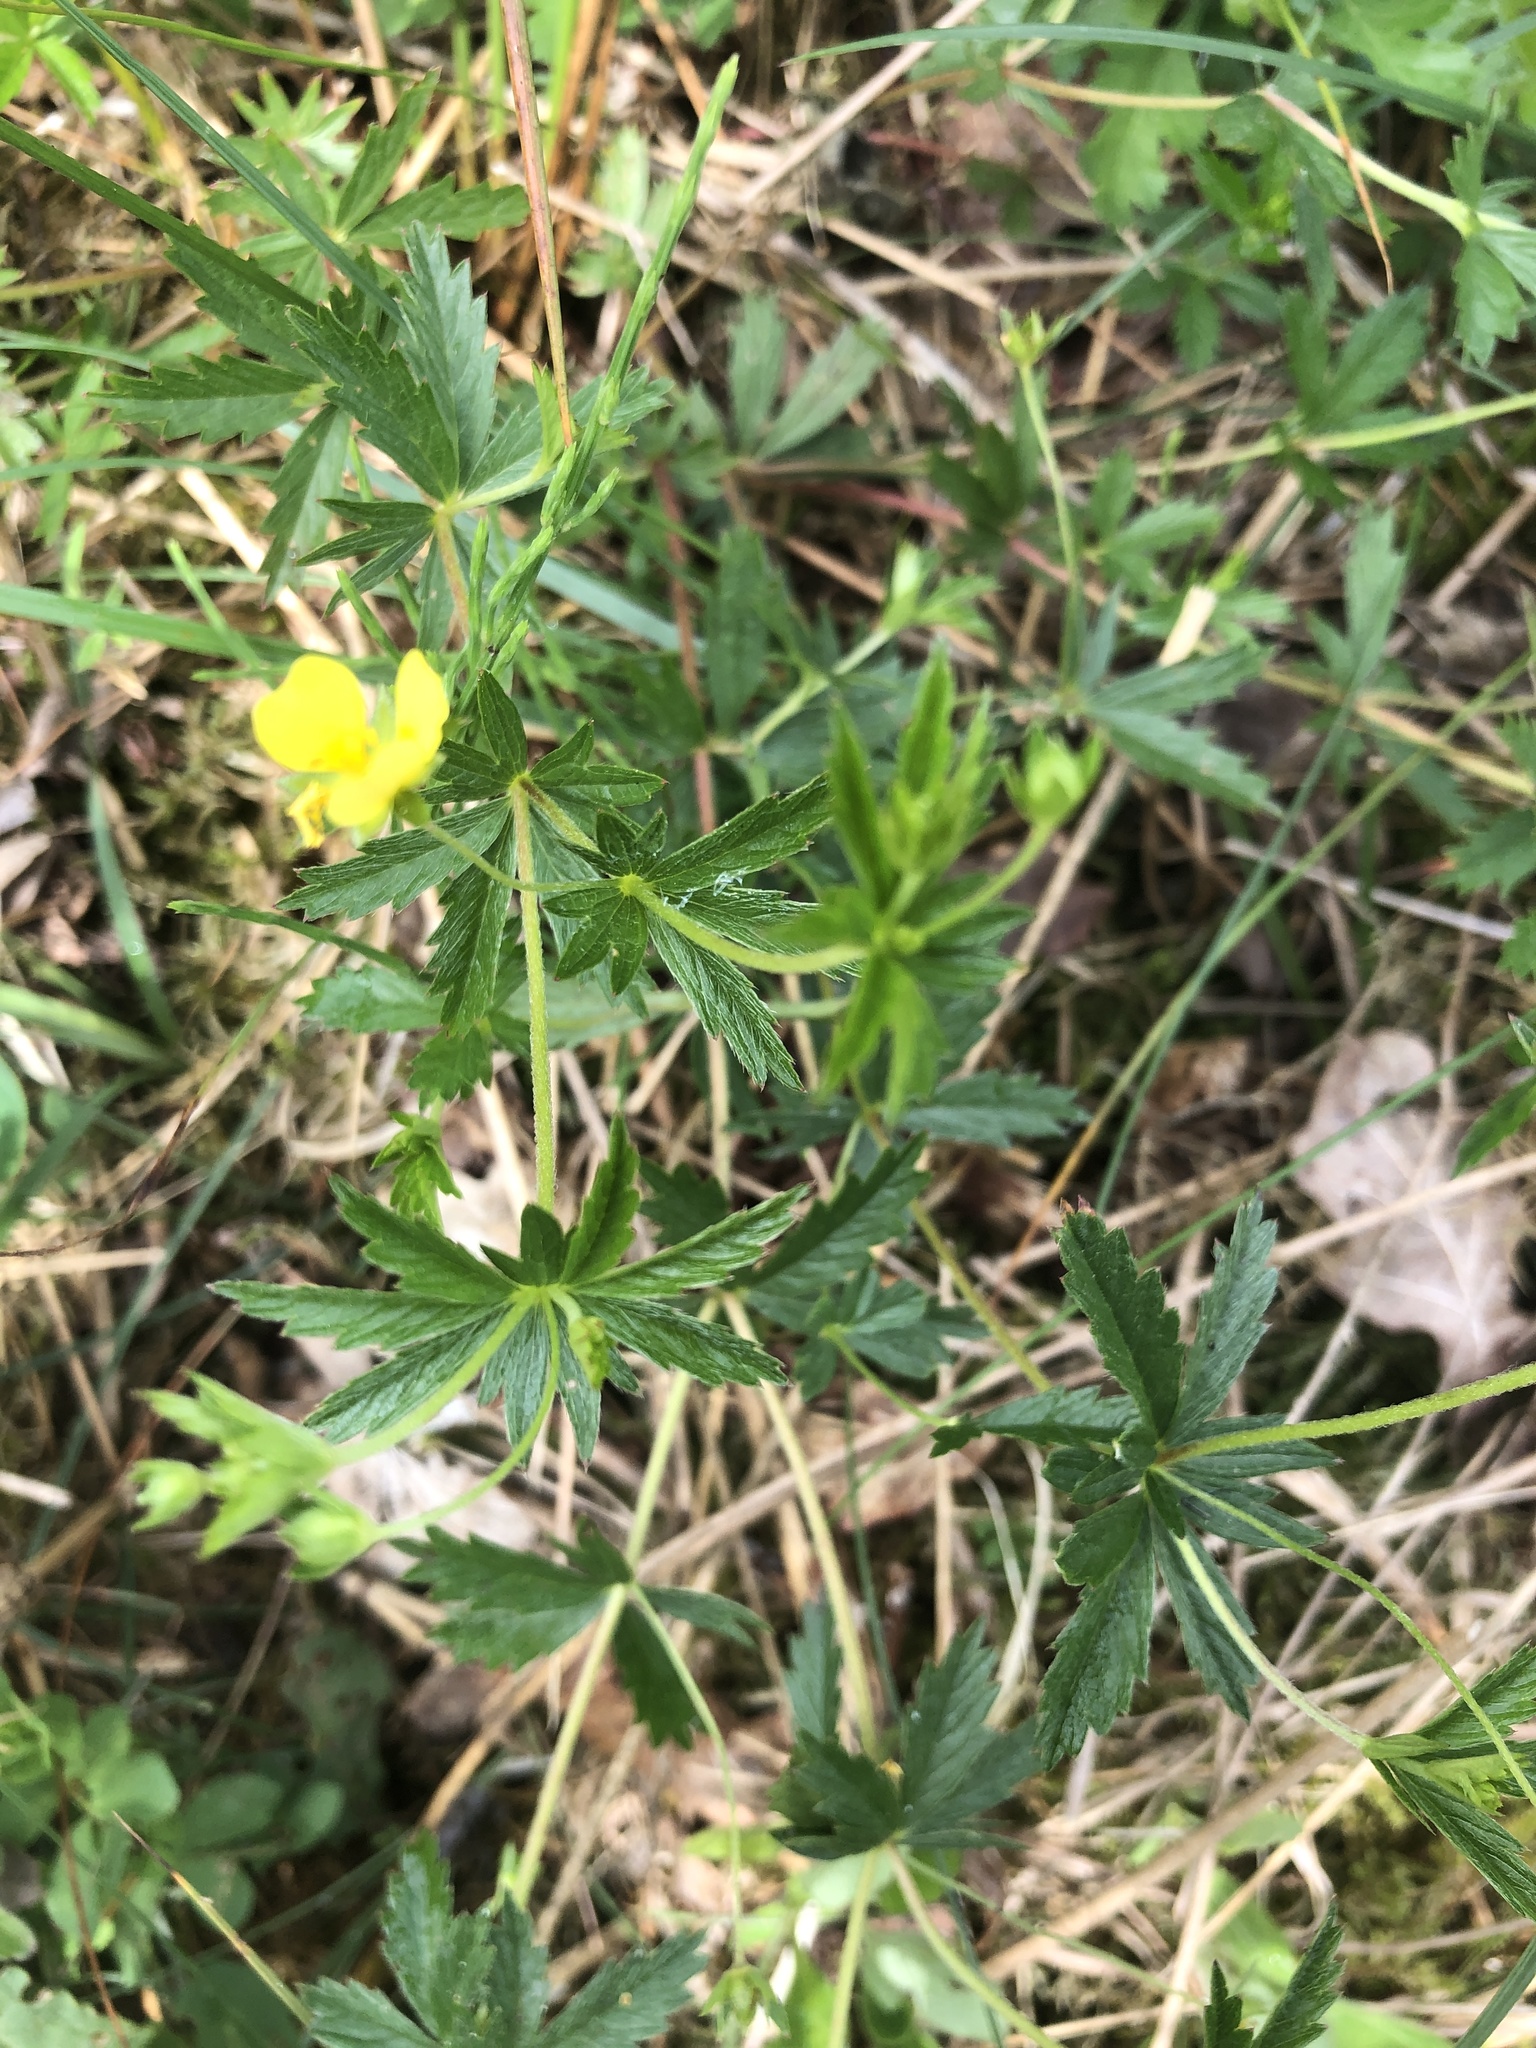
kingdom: Plantae
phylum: Tracheophyta
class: Magnoliopsida
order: Rosales
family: Rosaceae
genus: Potentilla
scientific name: Potentilla erecta
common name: Tormentil
